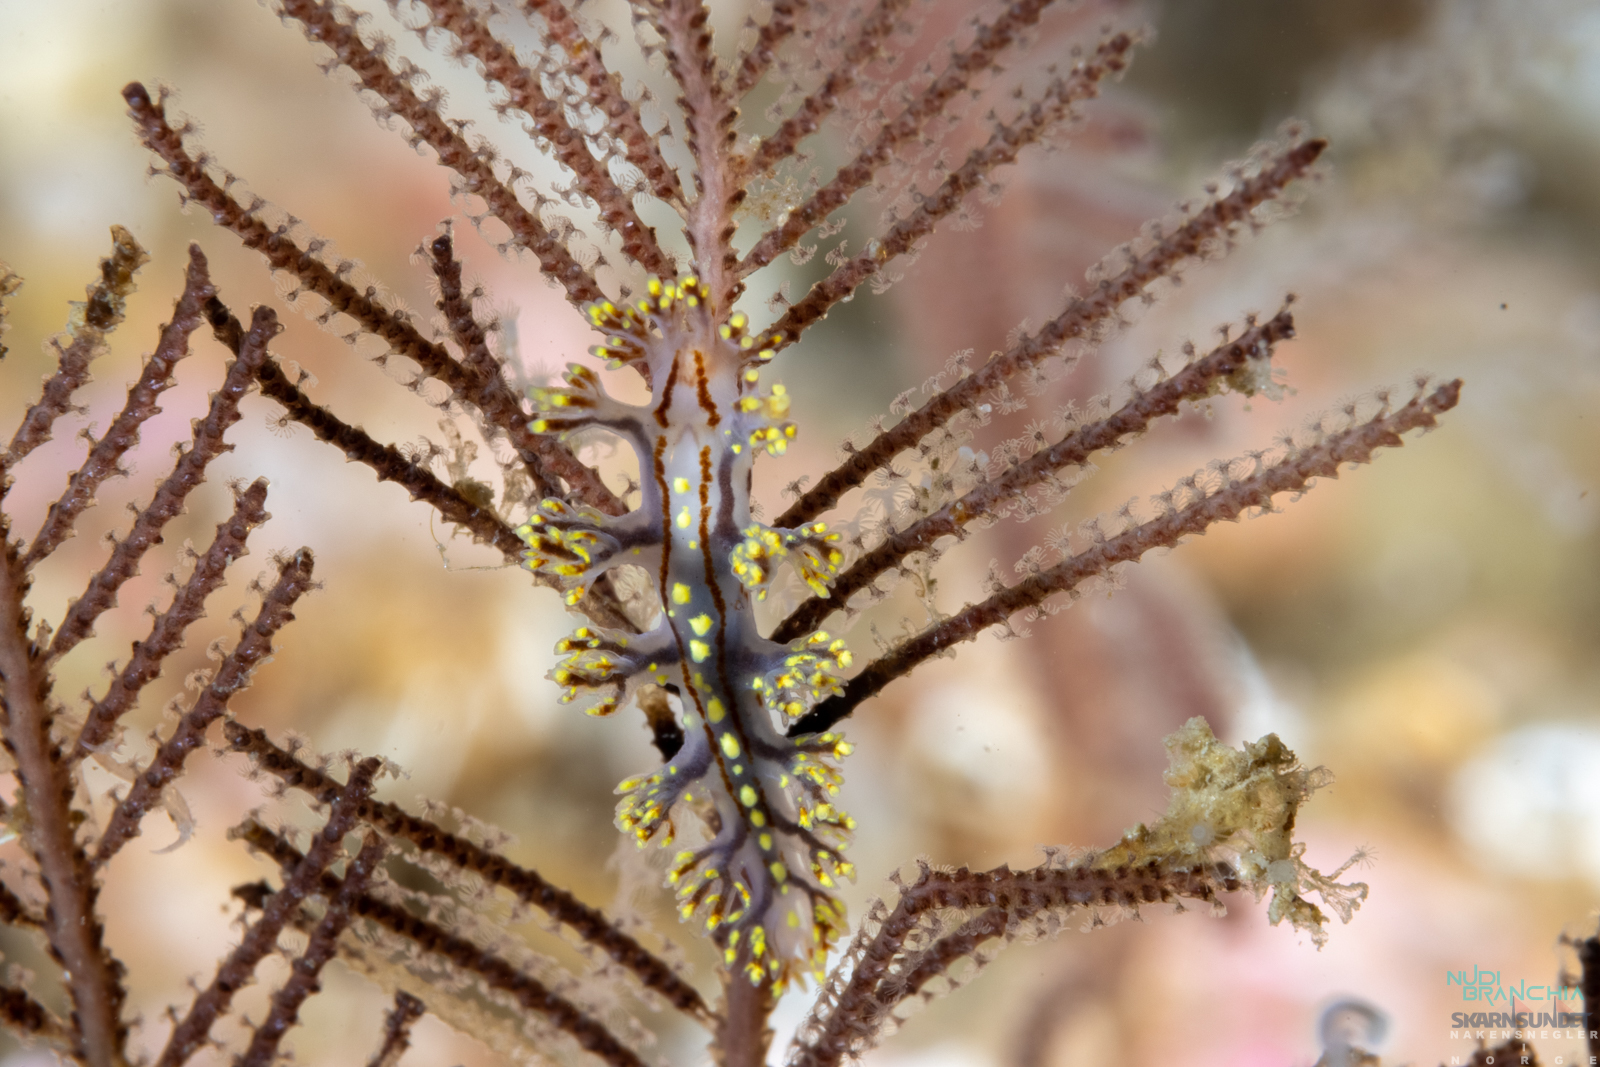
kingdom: Animalia
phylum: Mollusca
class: Gastropoda
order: Nudibranchia
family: Dendronotidae
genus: Dendronotus
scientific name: Dendronotus yrjargul
